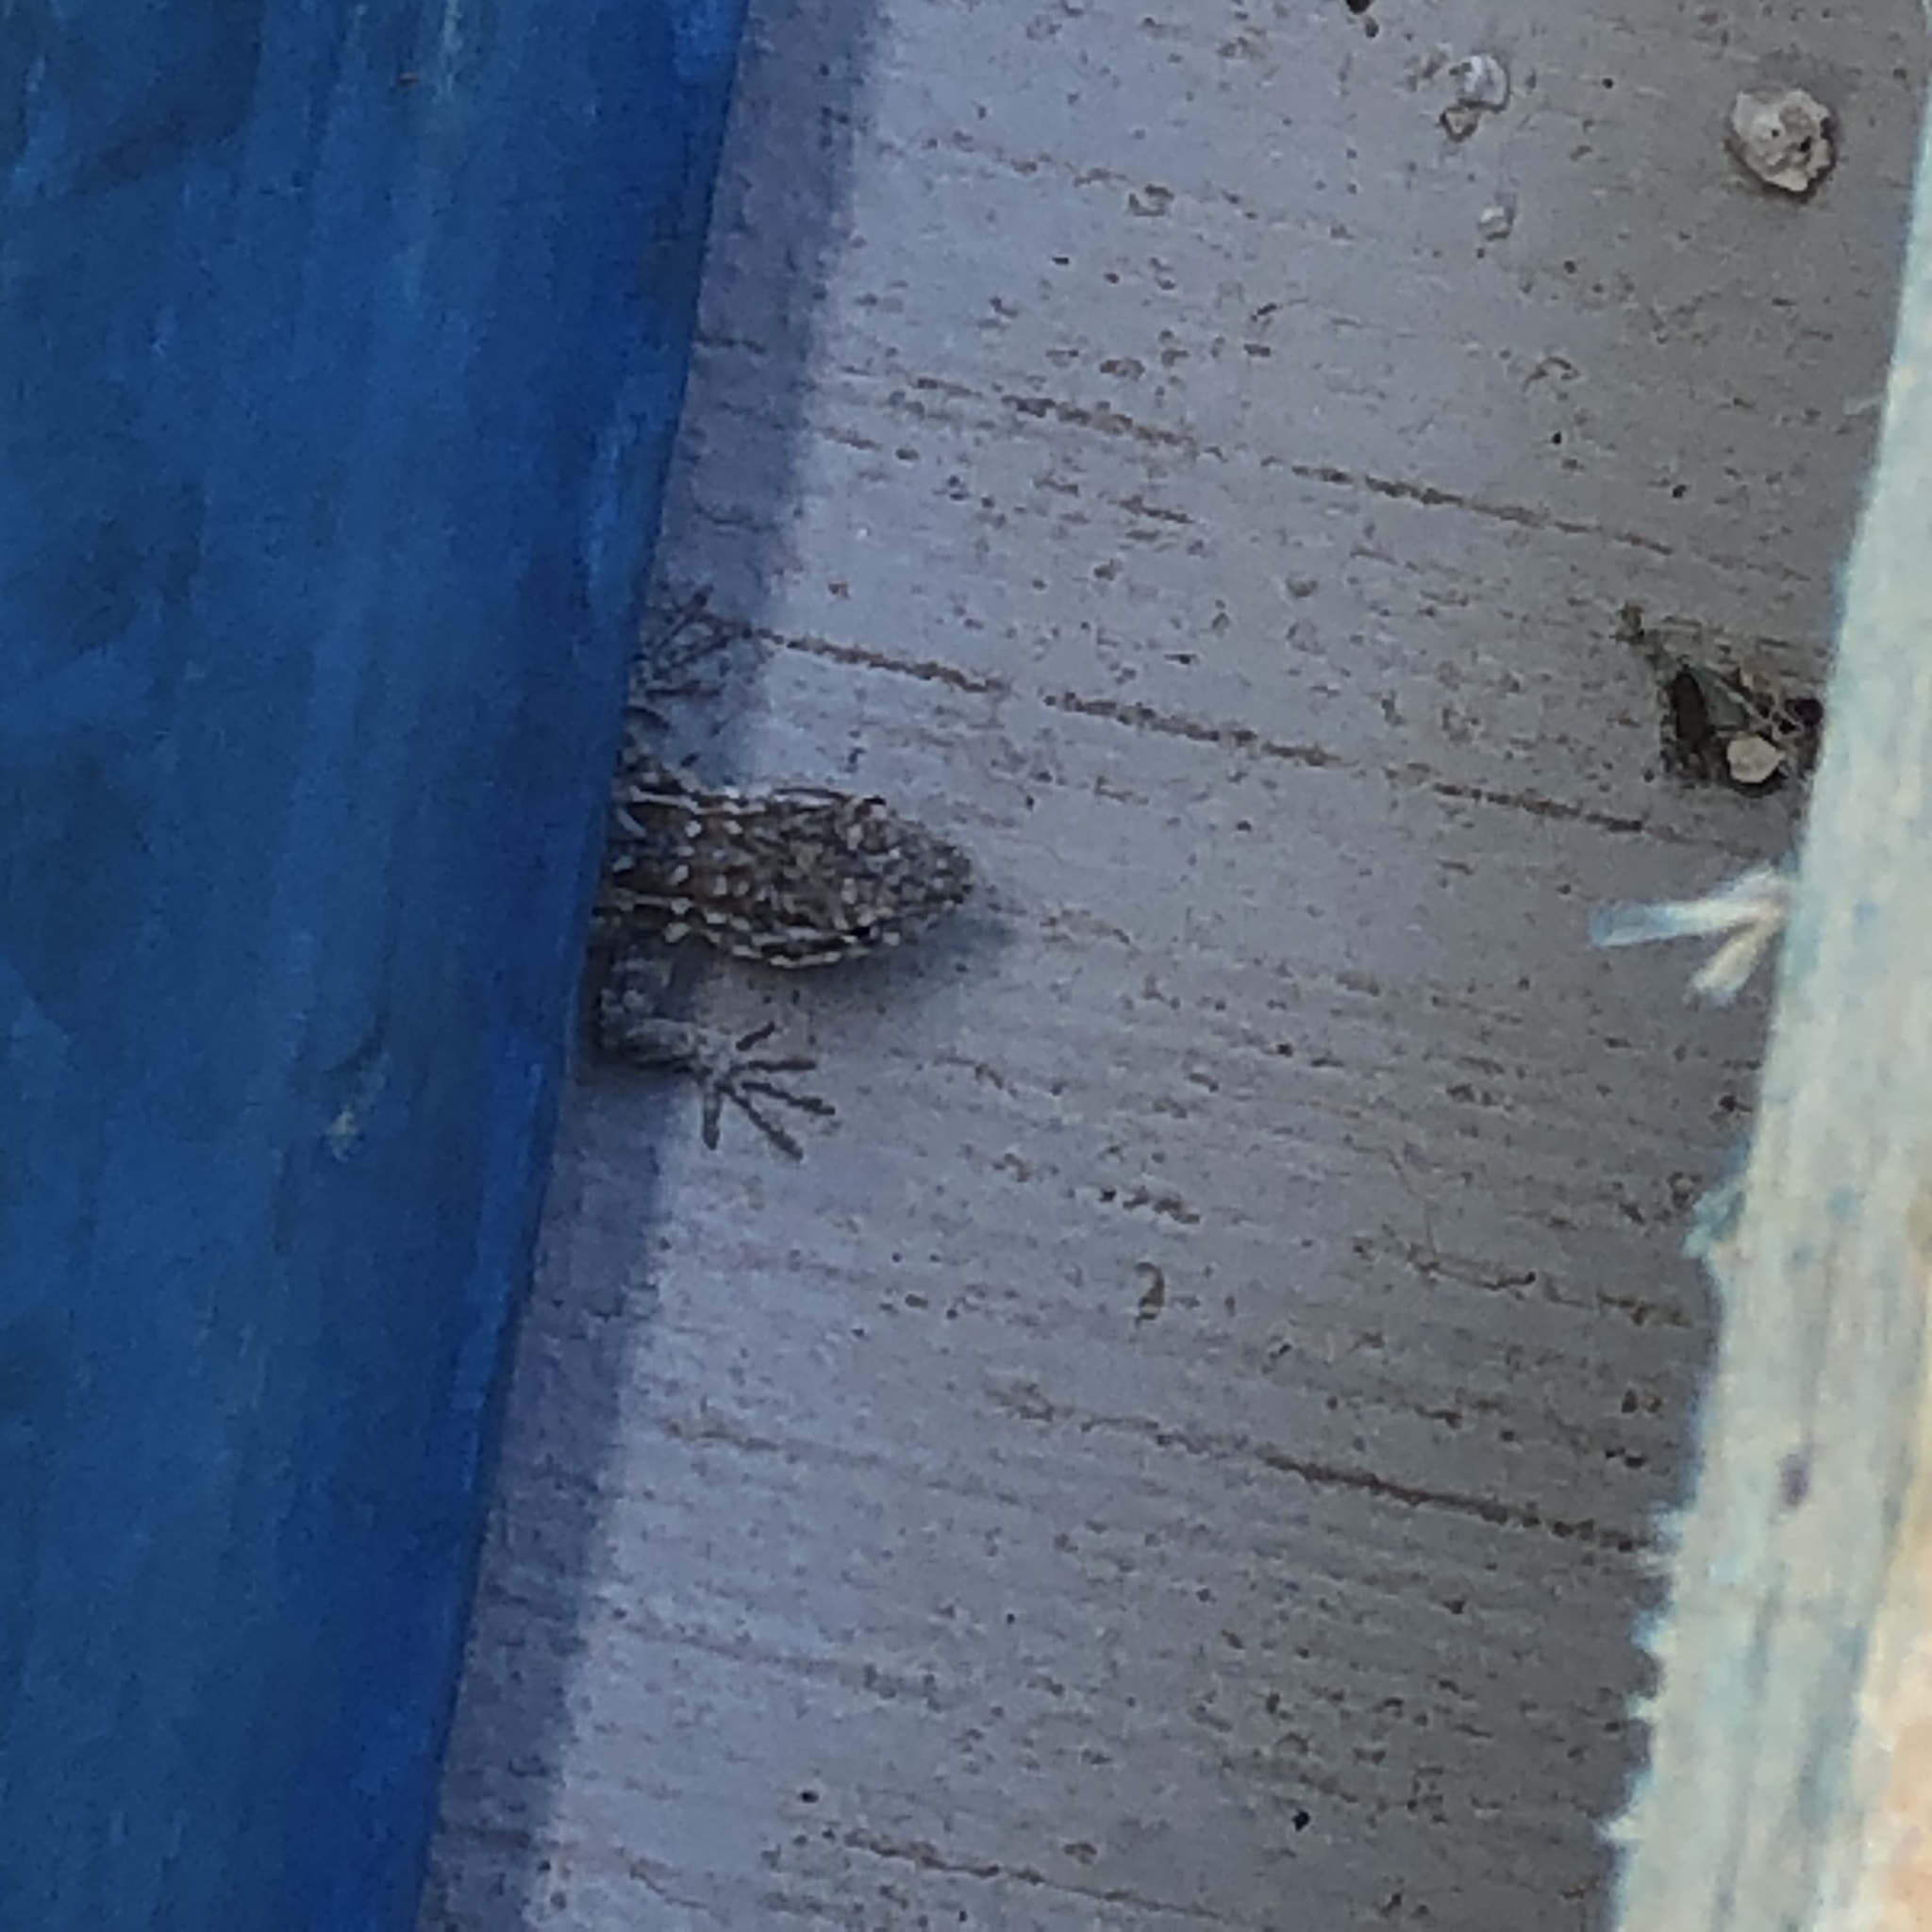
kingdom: Animalia
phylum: Chordata
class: Squamata
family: Phrynosomatidae
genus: Uta
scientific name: Uta stansburiana
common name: Side-blotched lizard
